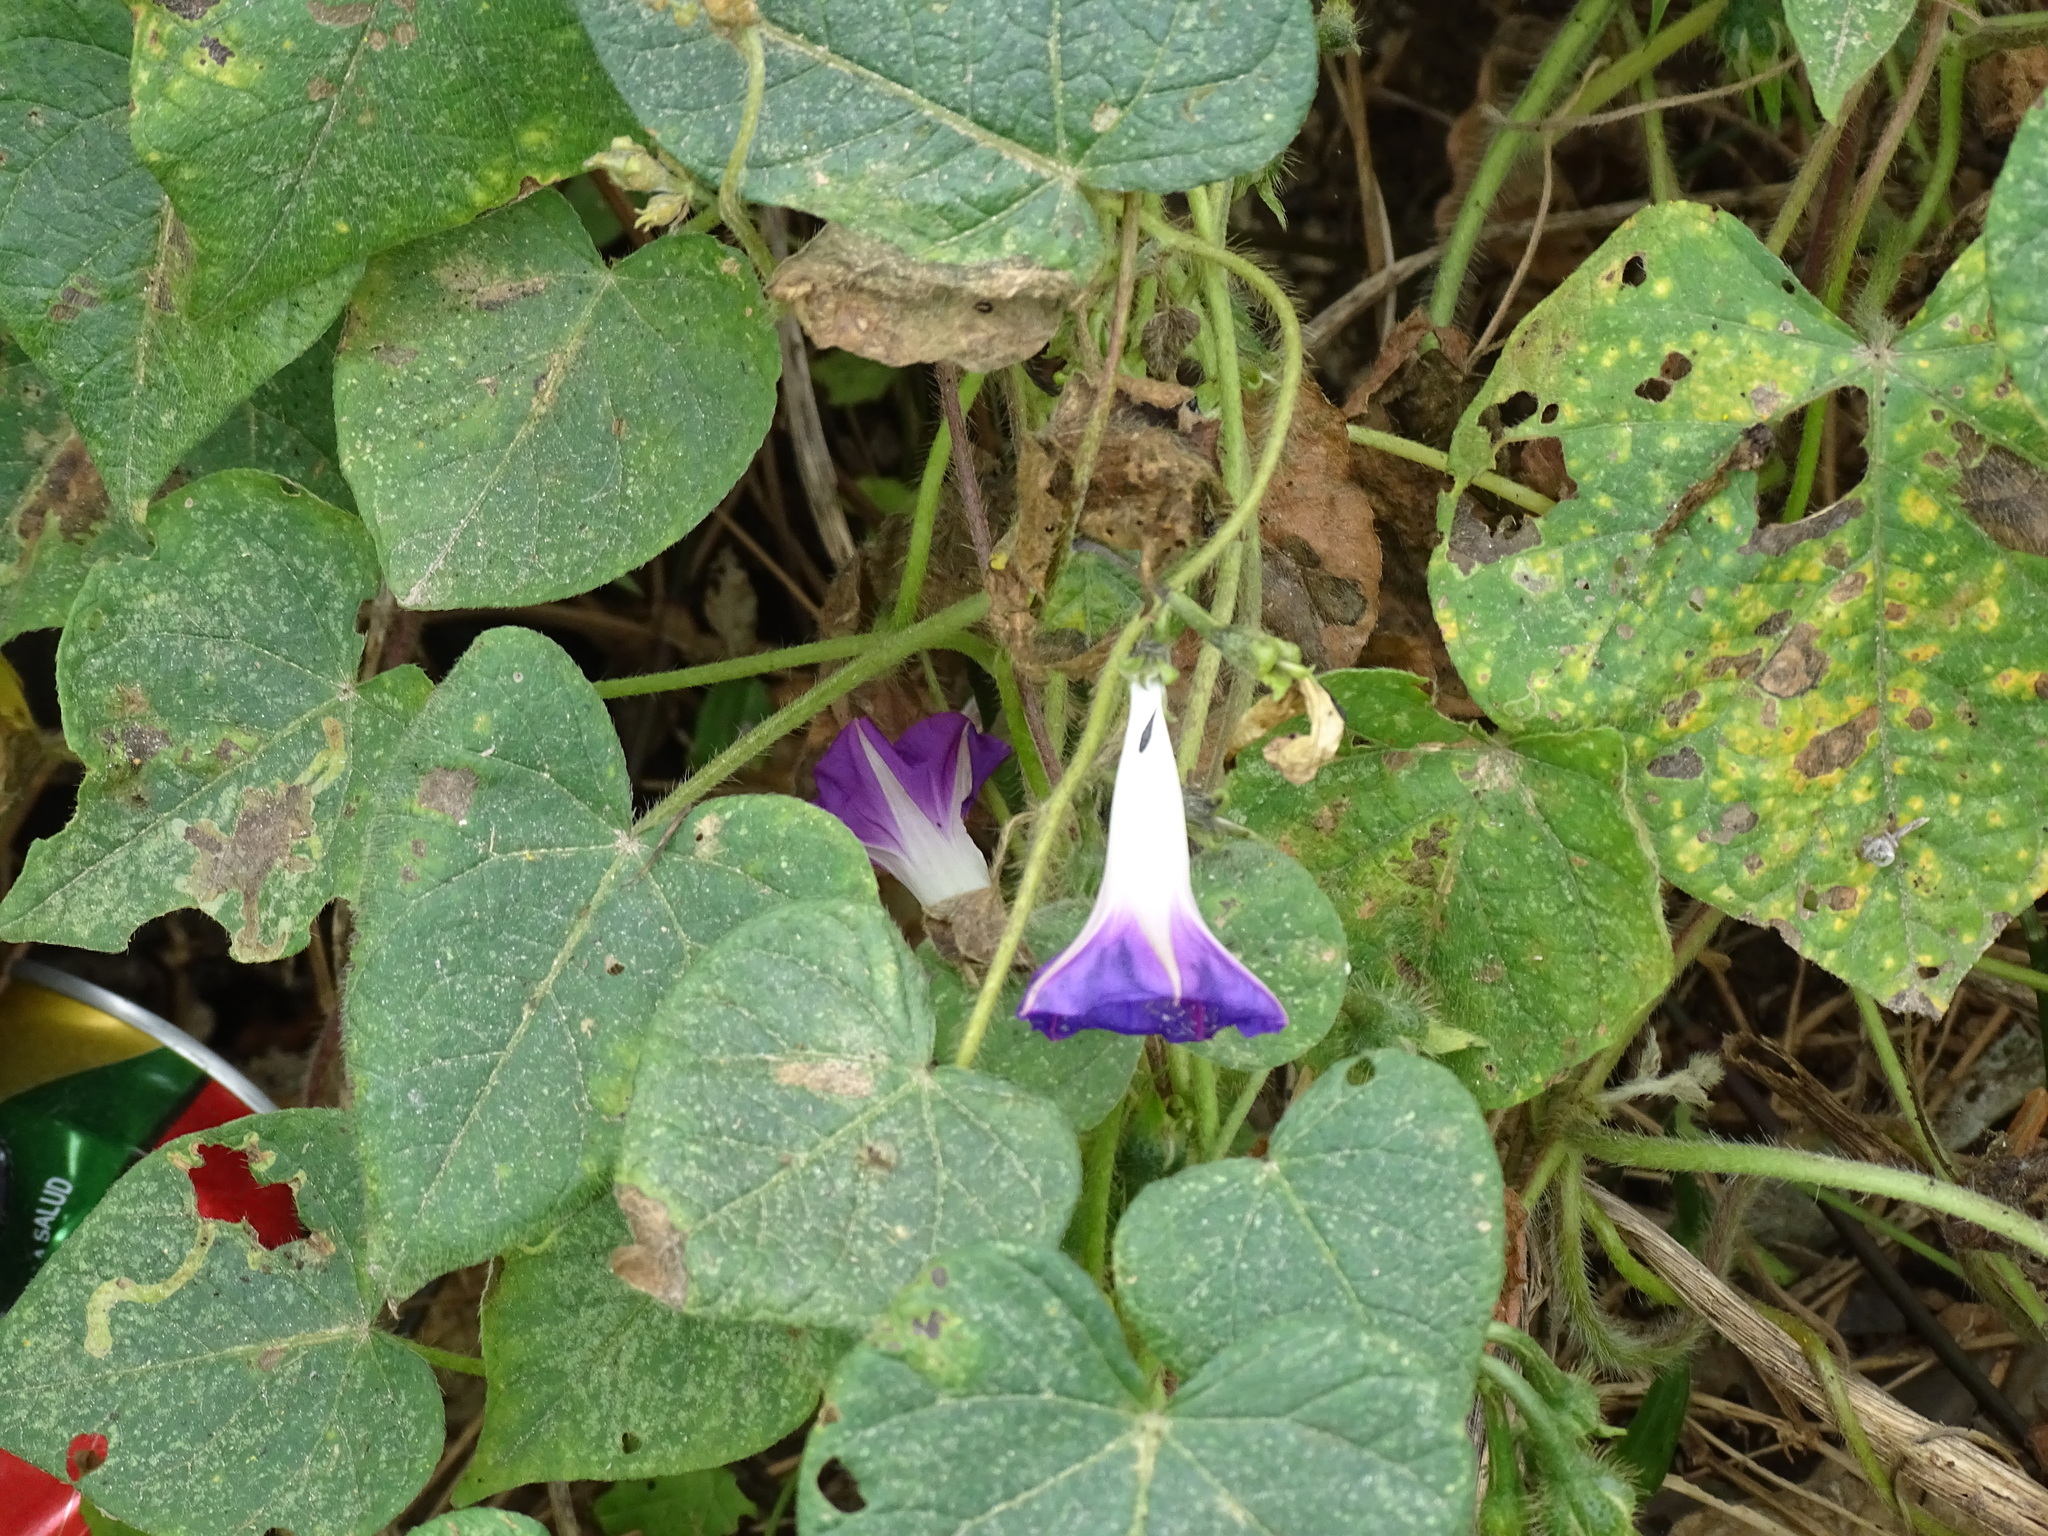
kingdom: Plantae
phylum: Tracheophyta
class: Magnoliopsida
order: Solanales
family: Convolvulaceae
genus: Ipomoea
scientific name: Ipomoea purpurea
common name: Common morning-glory
